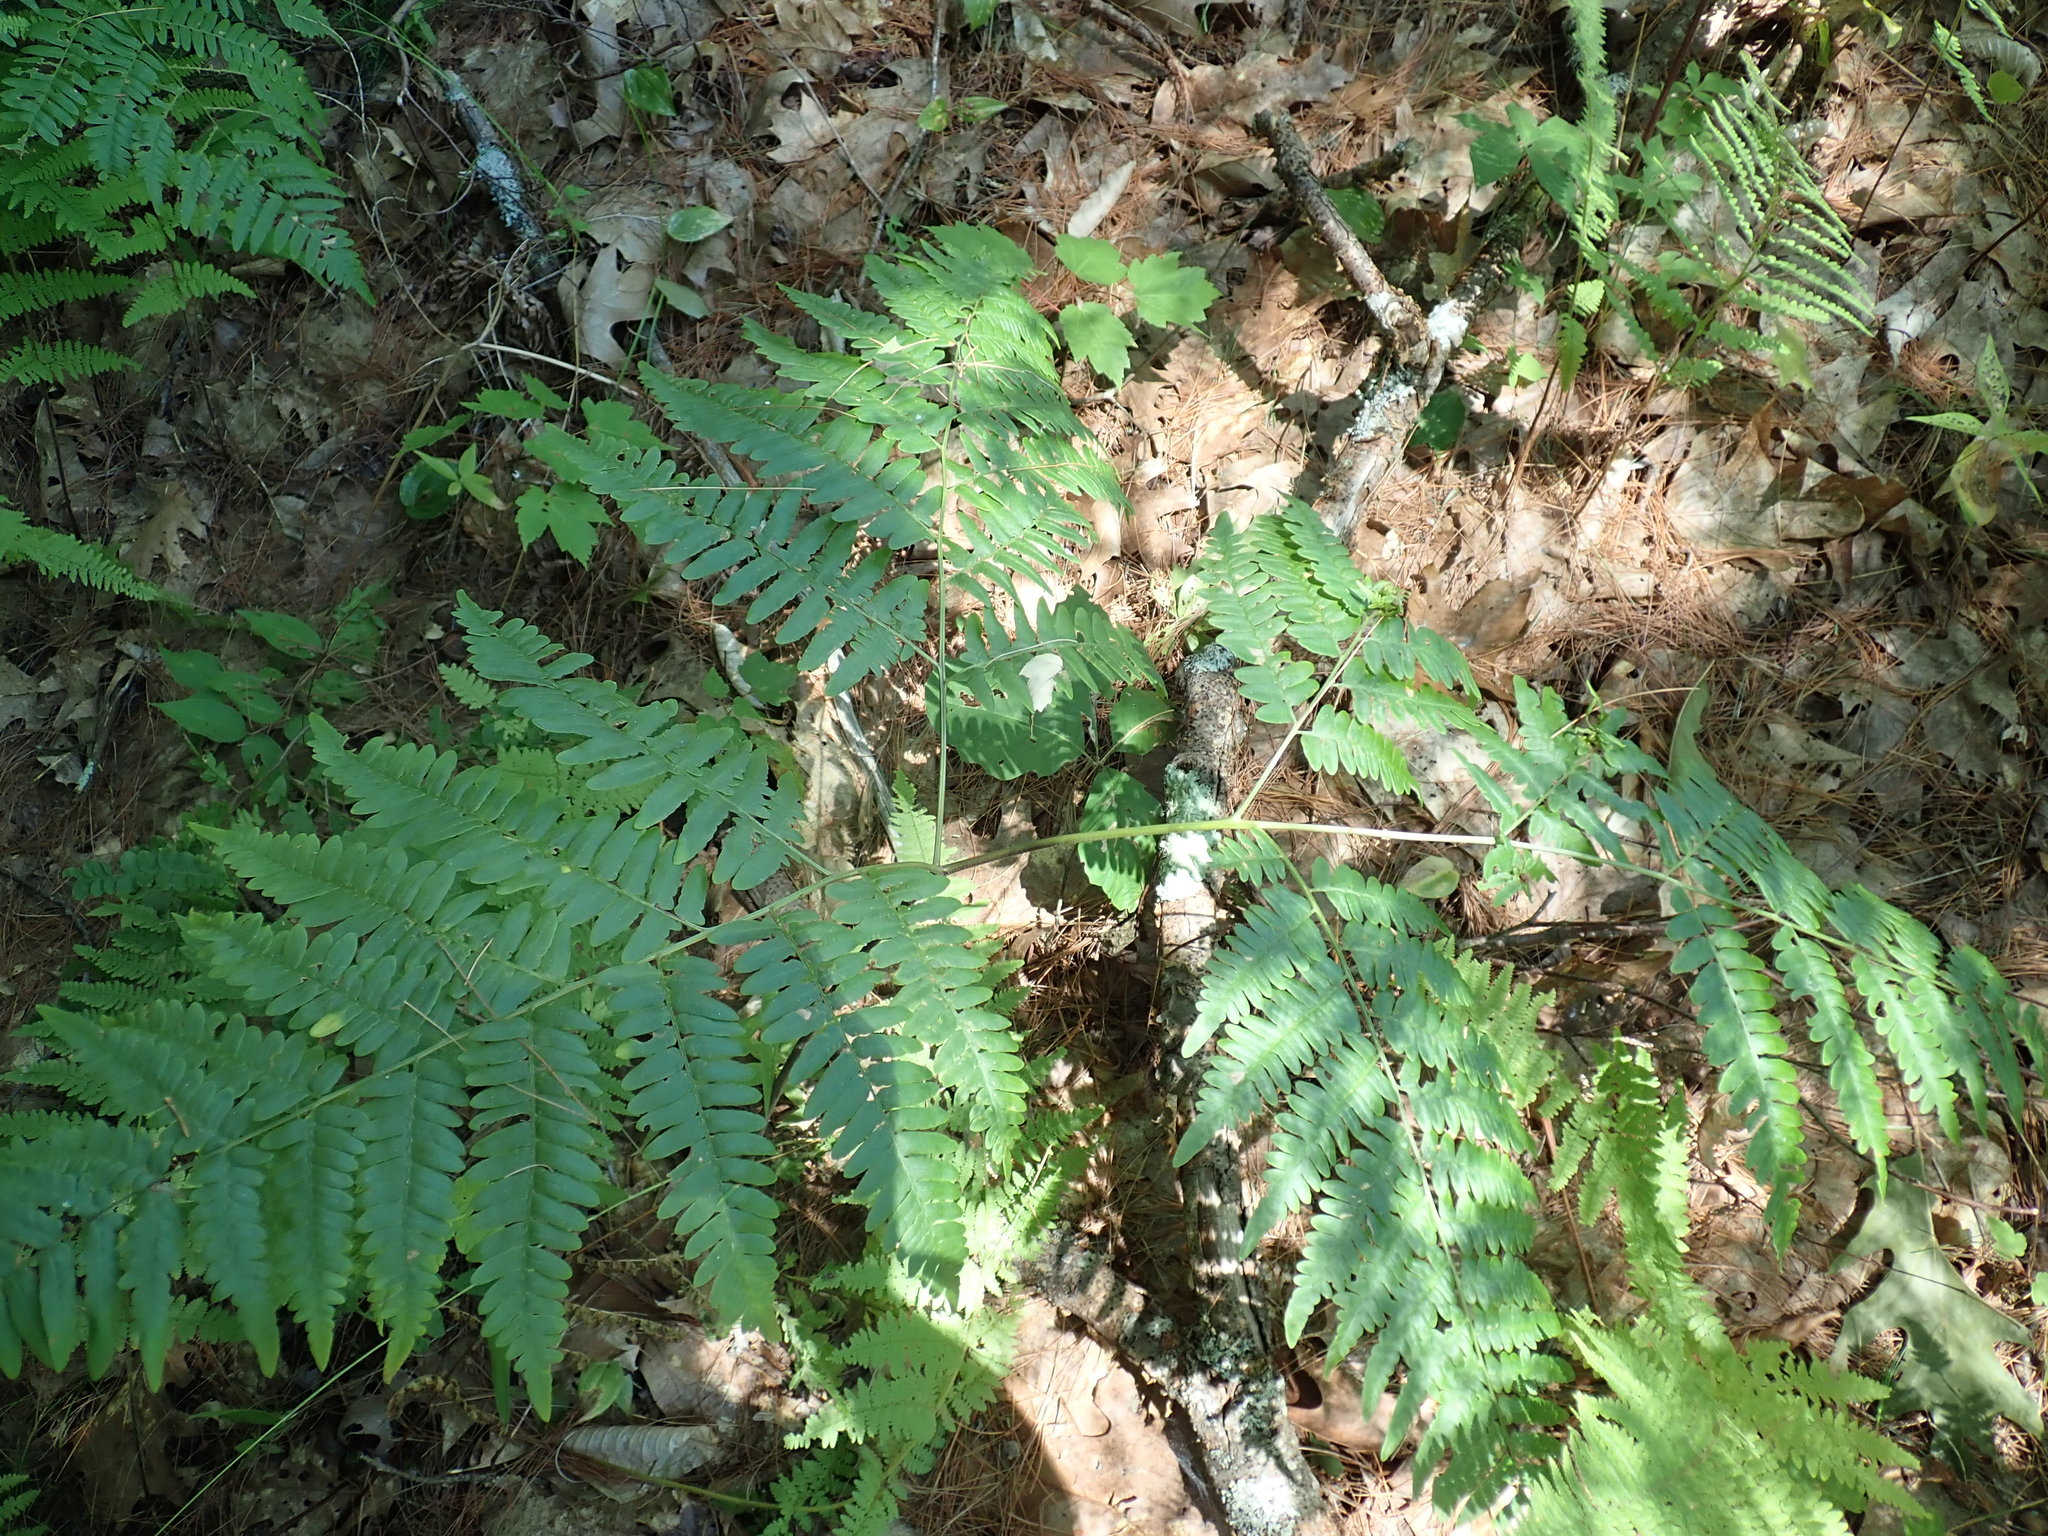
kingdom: Plantae
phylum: Tracheophyta
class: Polypodiopsida
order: Polypodiales
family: Dennstaedtiaceae
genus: Pteridium
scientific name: Pteridium aquilinum
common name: Bracken
